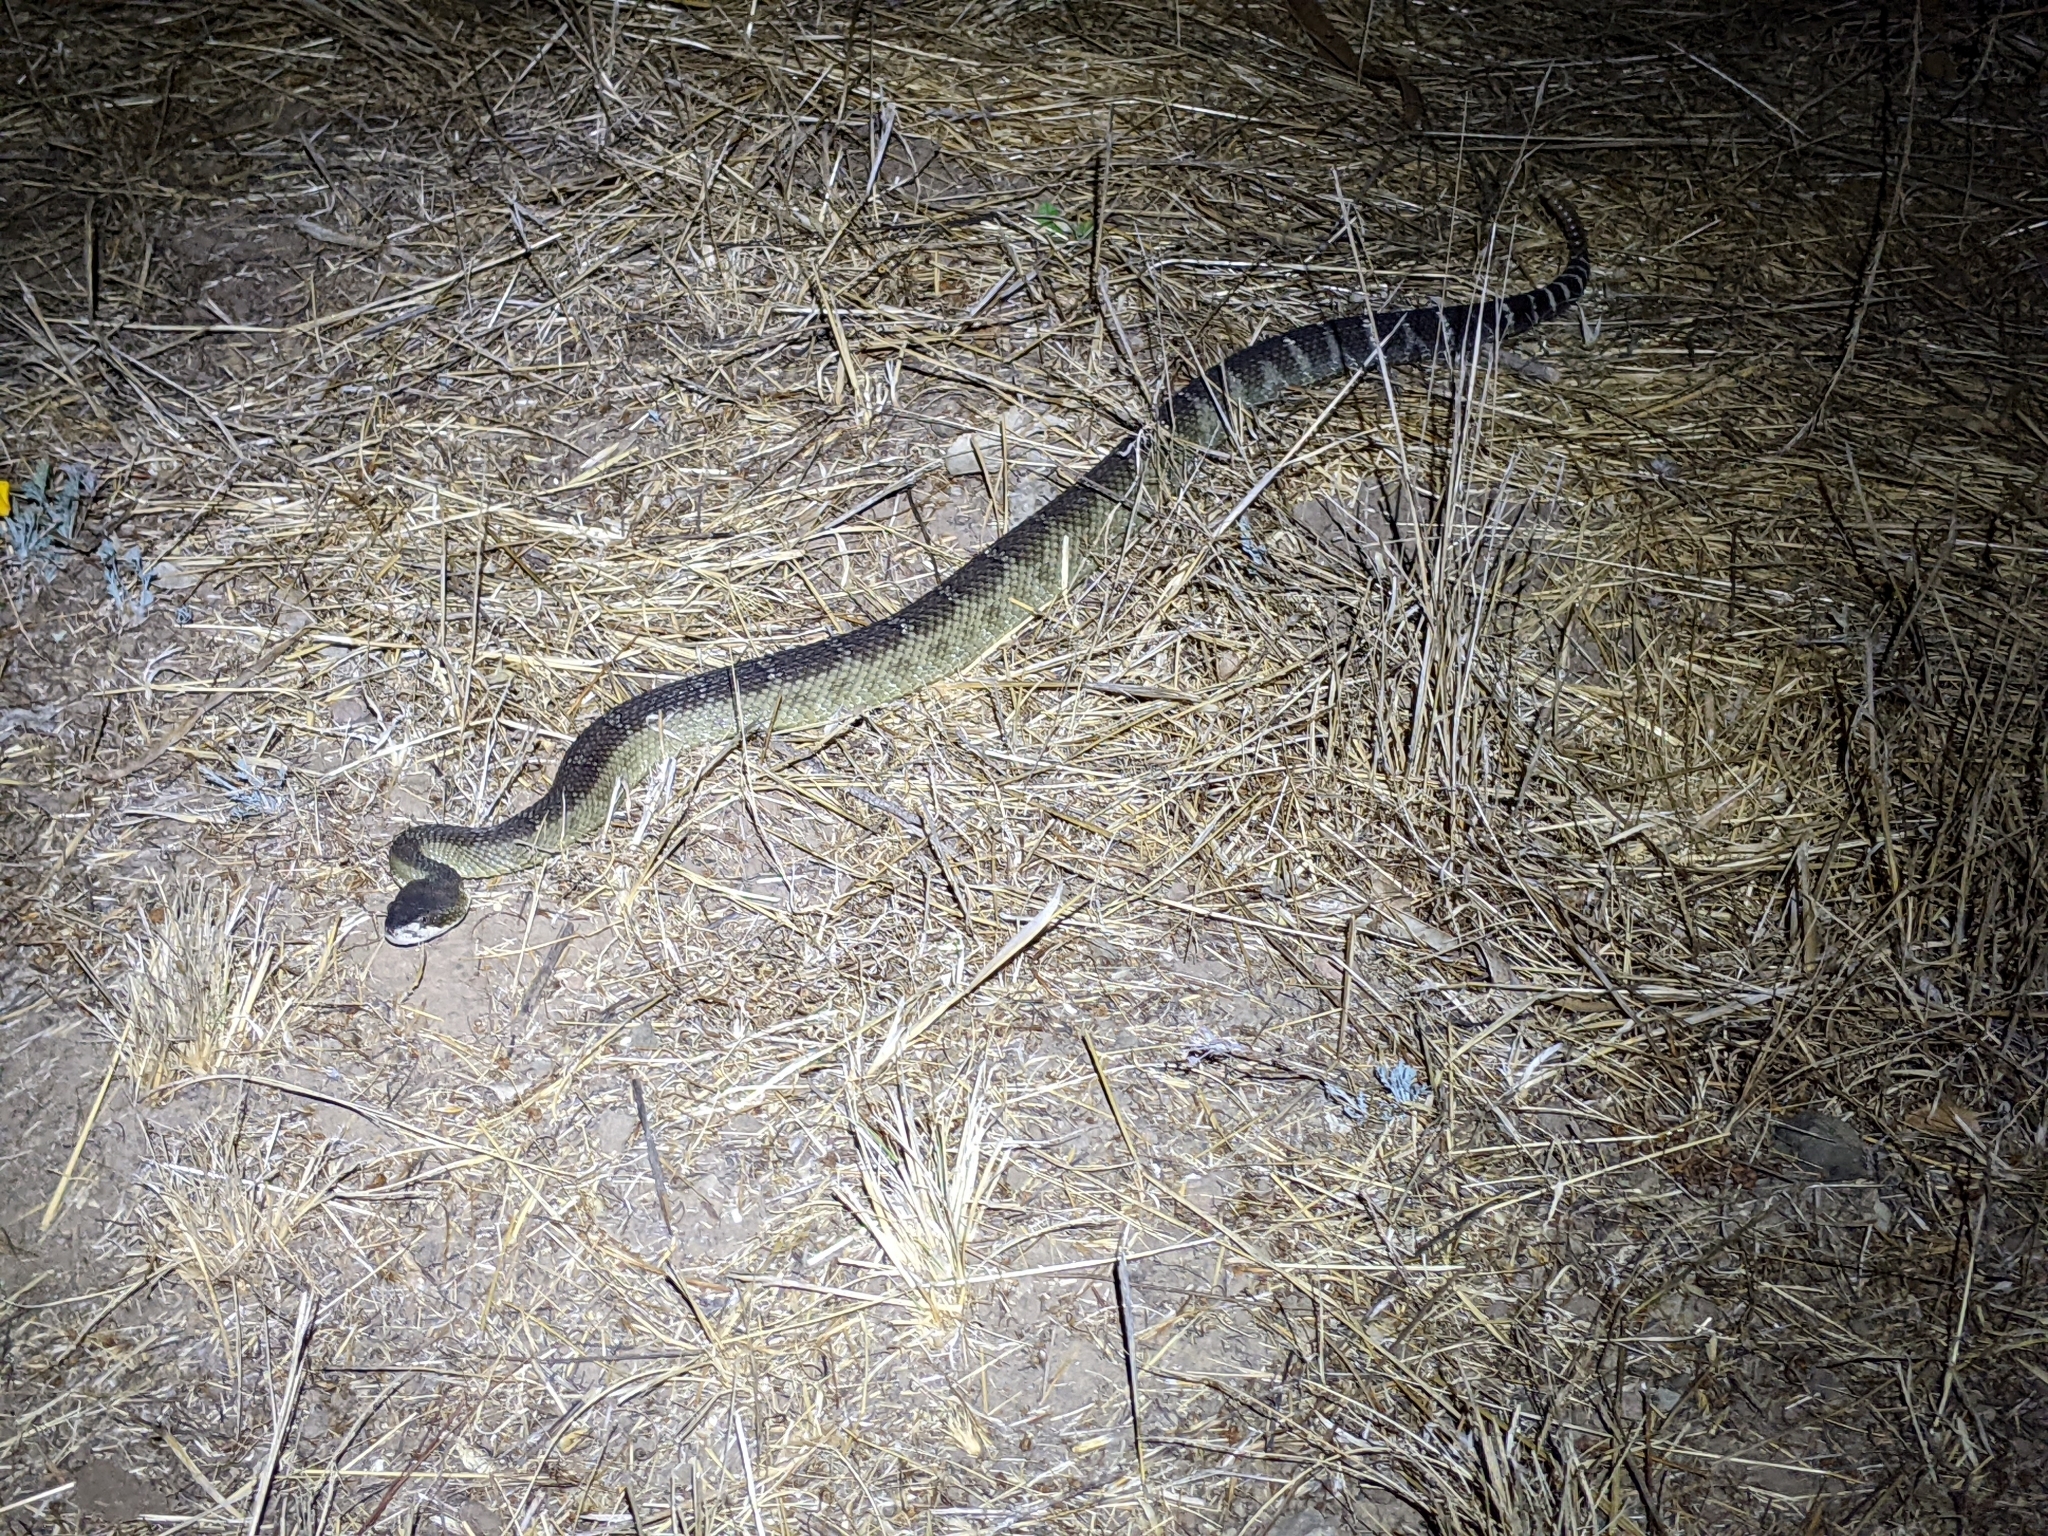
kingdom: Animalia
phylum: Chordata
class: Squamata
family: Viperidae
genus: Crotalus
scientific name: Crotalus oreganus
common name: Abyssus
